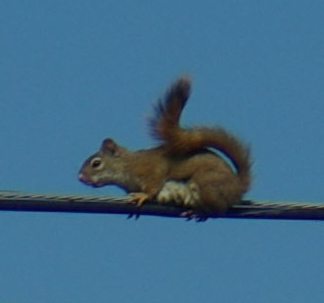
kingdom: Animalia
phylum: Chordata
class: Mammalia
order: Rodentia
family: Sciuridae
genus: Tamiasciurus
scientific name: Tamiasciurus hudsonicus
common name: Red squirrel
